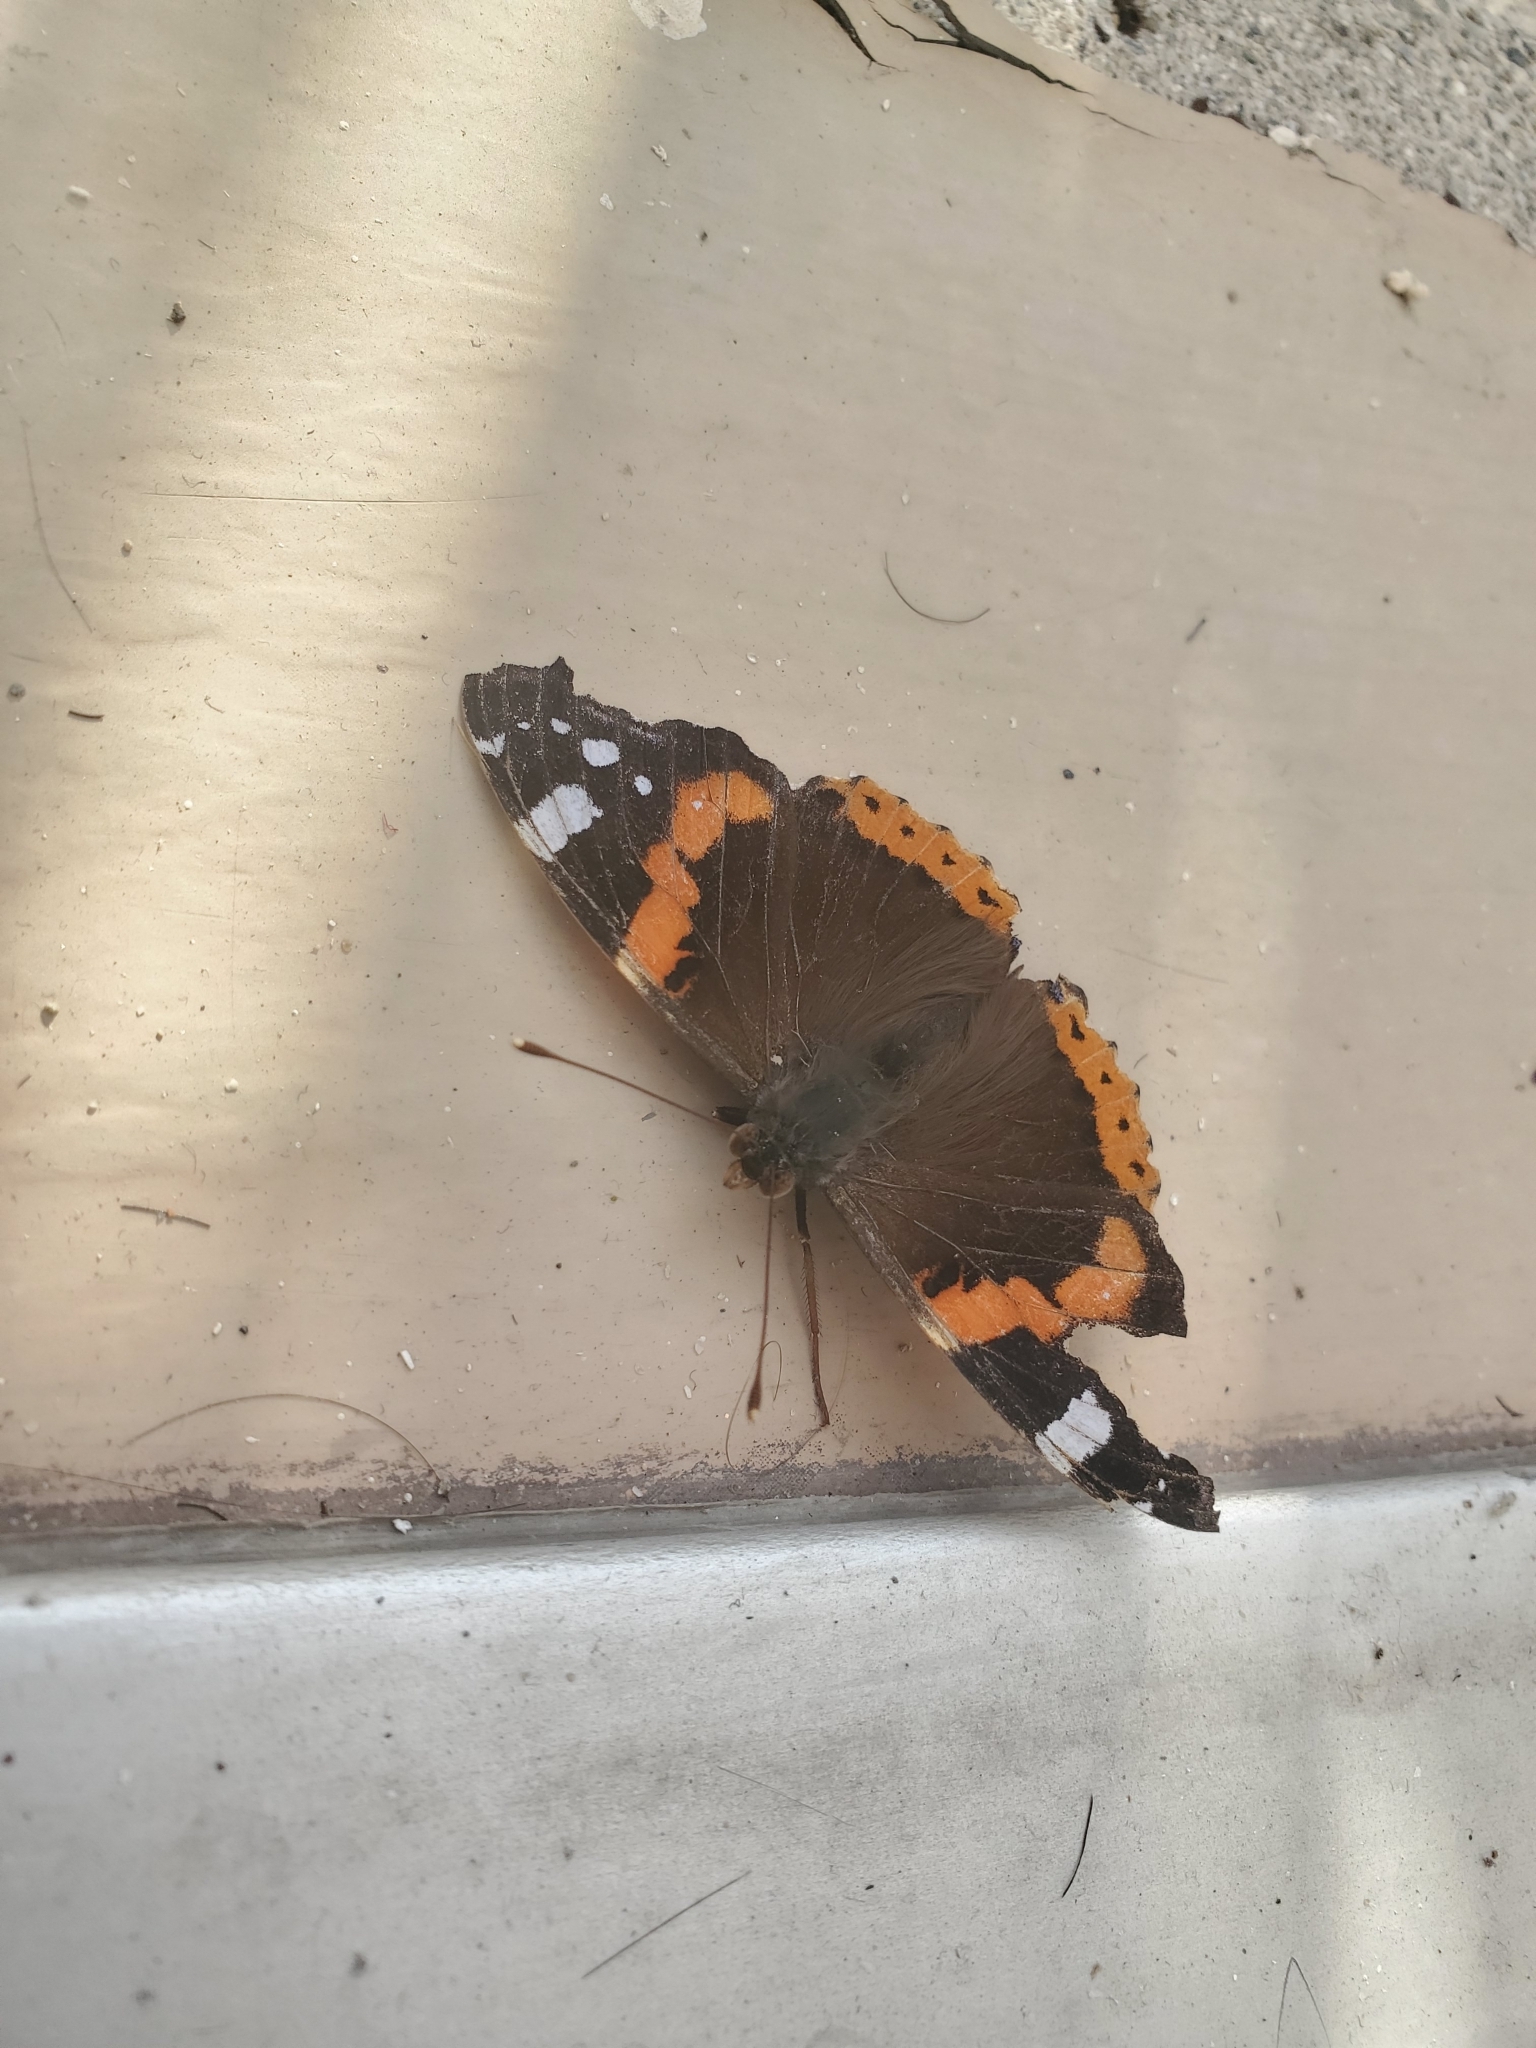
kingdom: Animalia
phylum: Arthropoda
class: Insecta
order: Lepidoptera
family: Nymphalidae
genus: Vanessa
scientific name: Vanessa atalanta
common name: Red admiral
